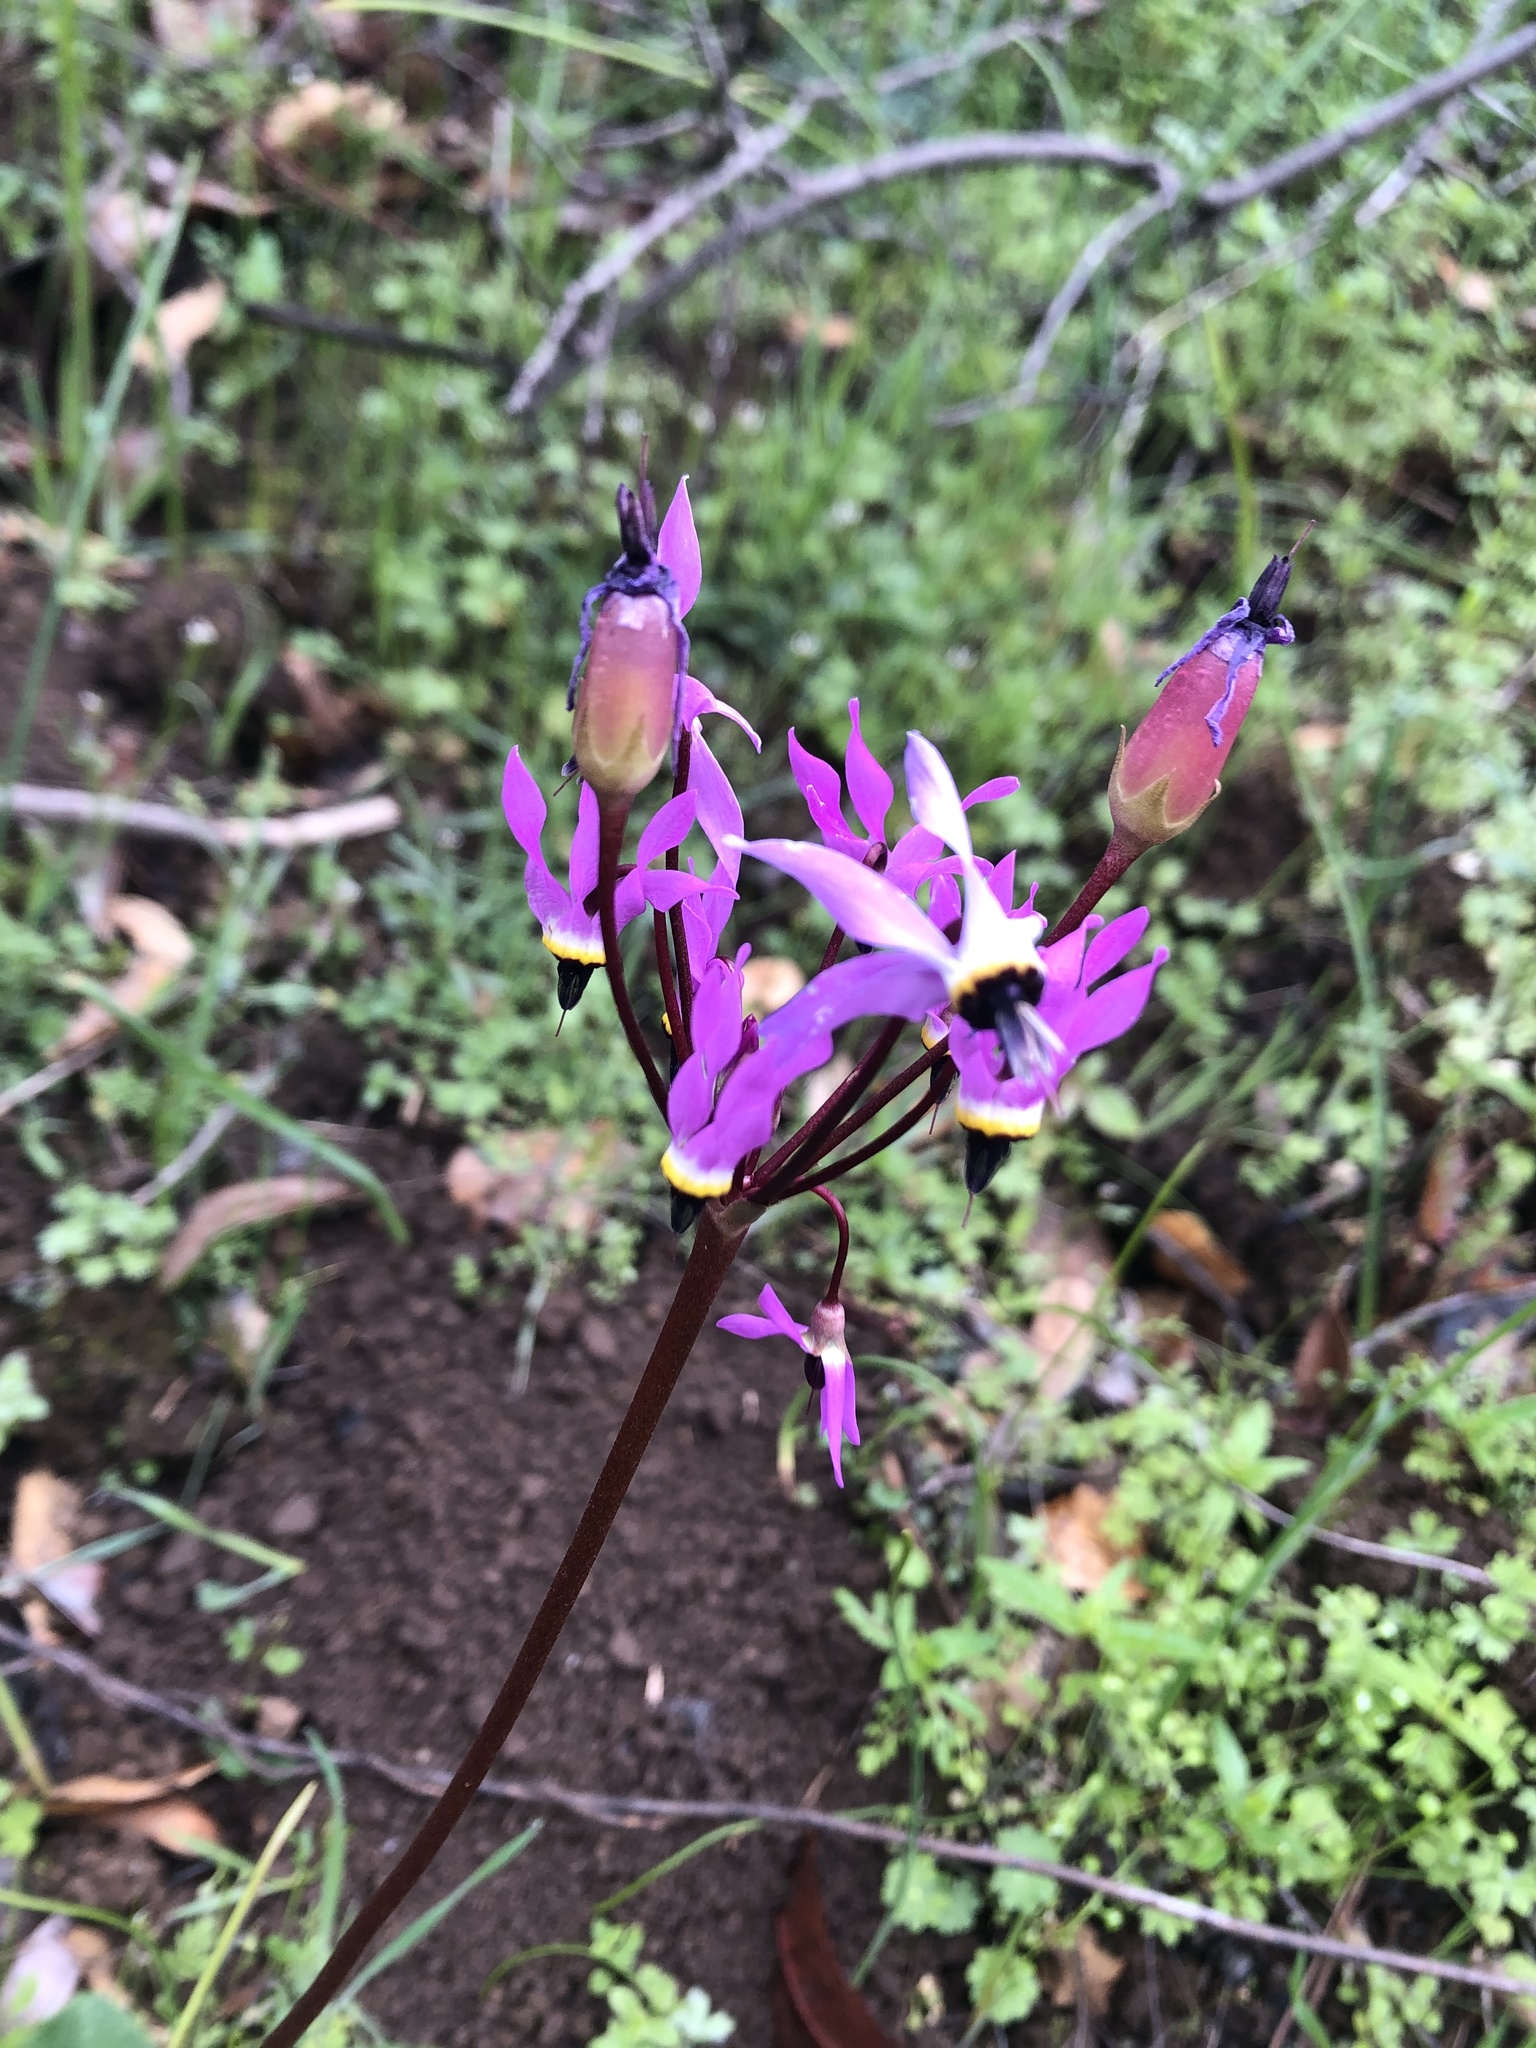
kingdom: Plantae
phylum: Tracheophyta
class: Magnoliopsida
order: Ericales
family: Primulaceae
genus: Dodecatheon
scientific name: Dodecatheon hendersonii
